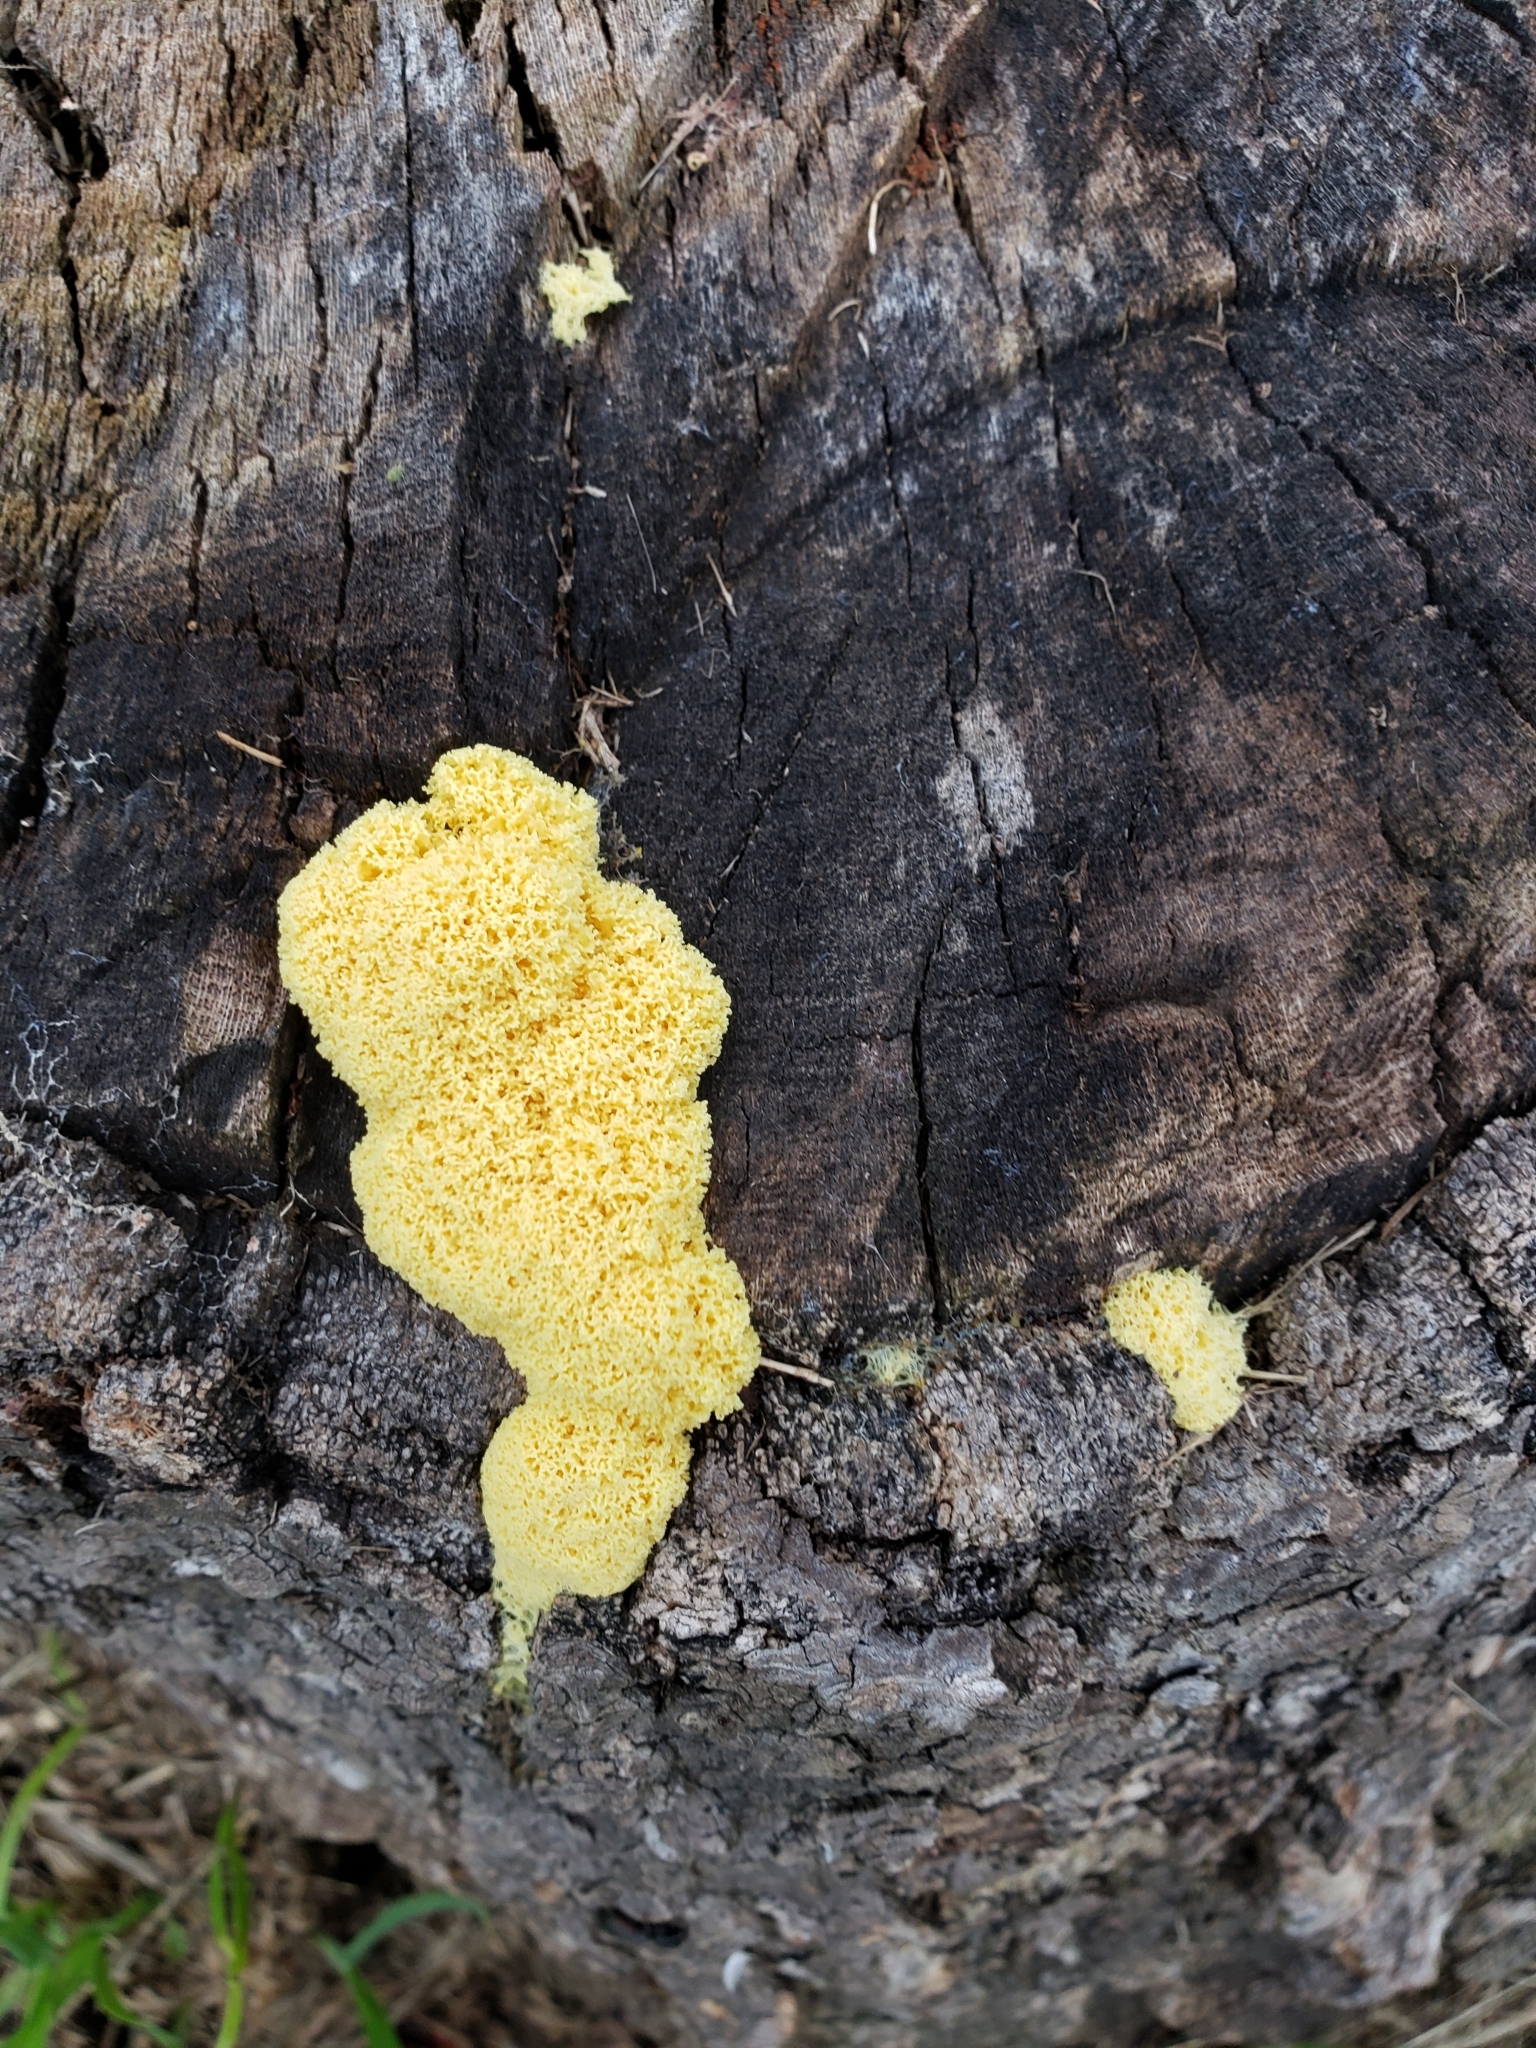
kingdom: Protozoa
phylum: Mycetozoa
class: Myxomycetes
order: Physarales
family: Physaraceae
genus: Fuligo
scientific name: Fuligo septica
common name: Dog vomit slime mold
